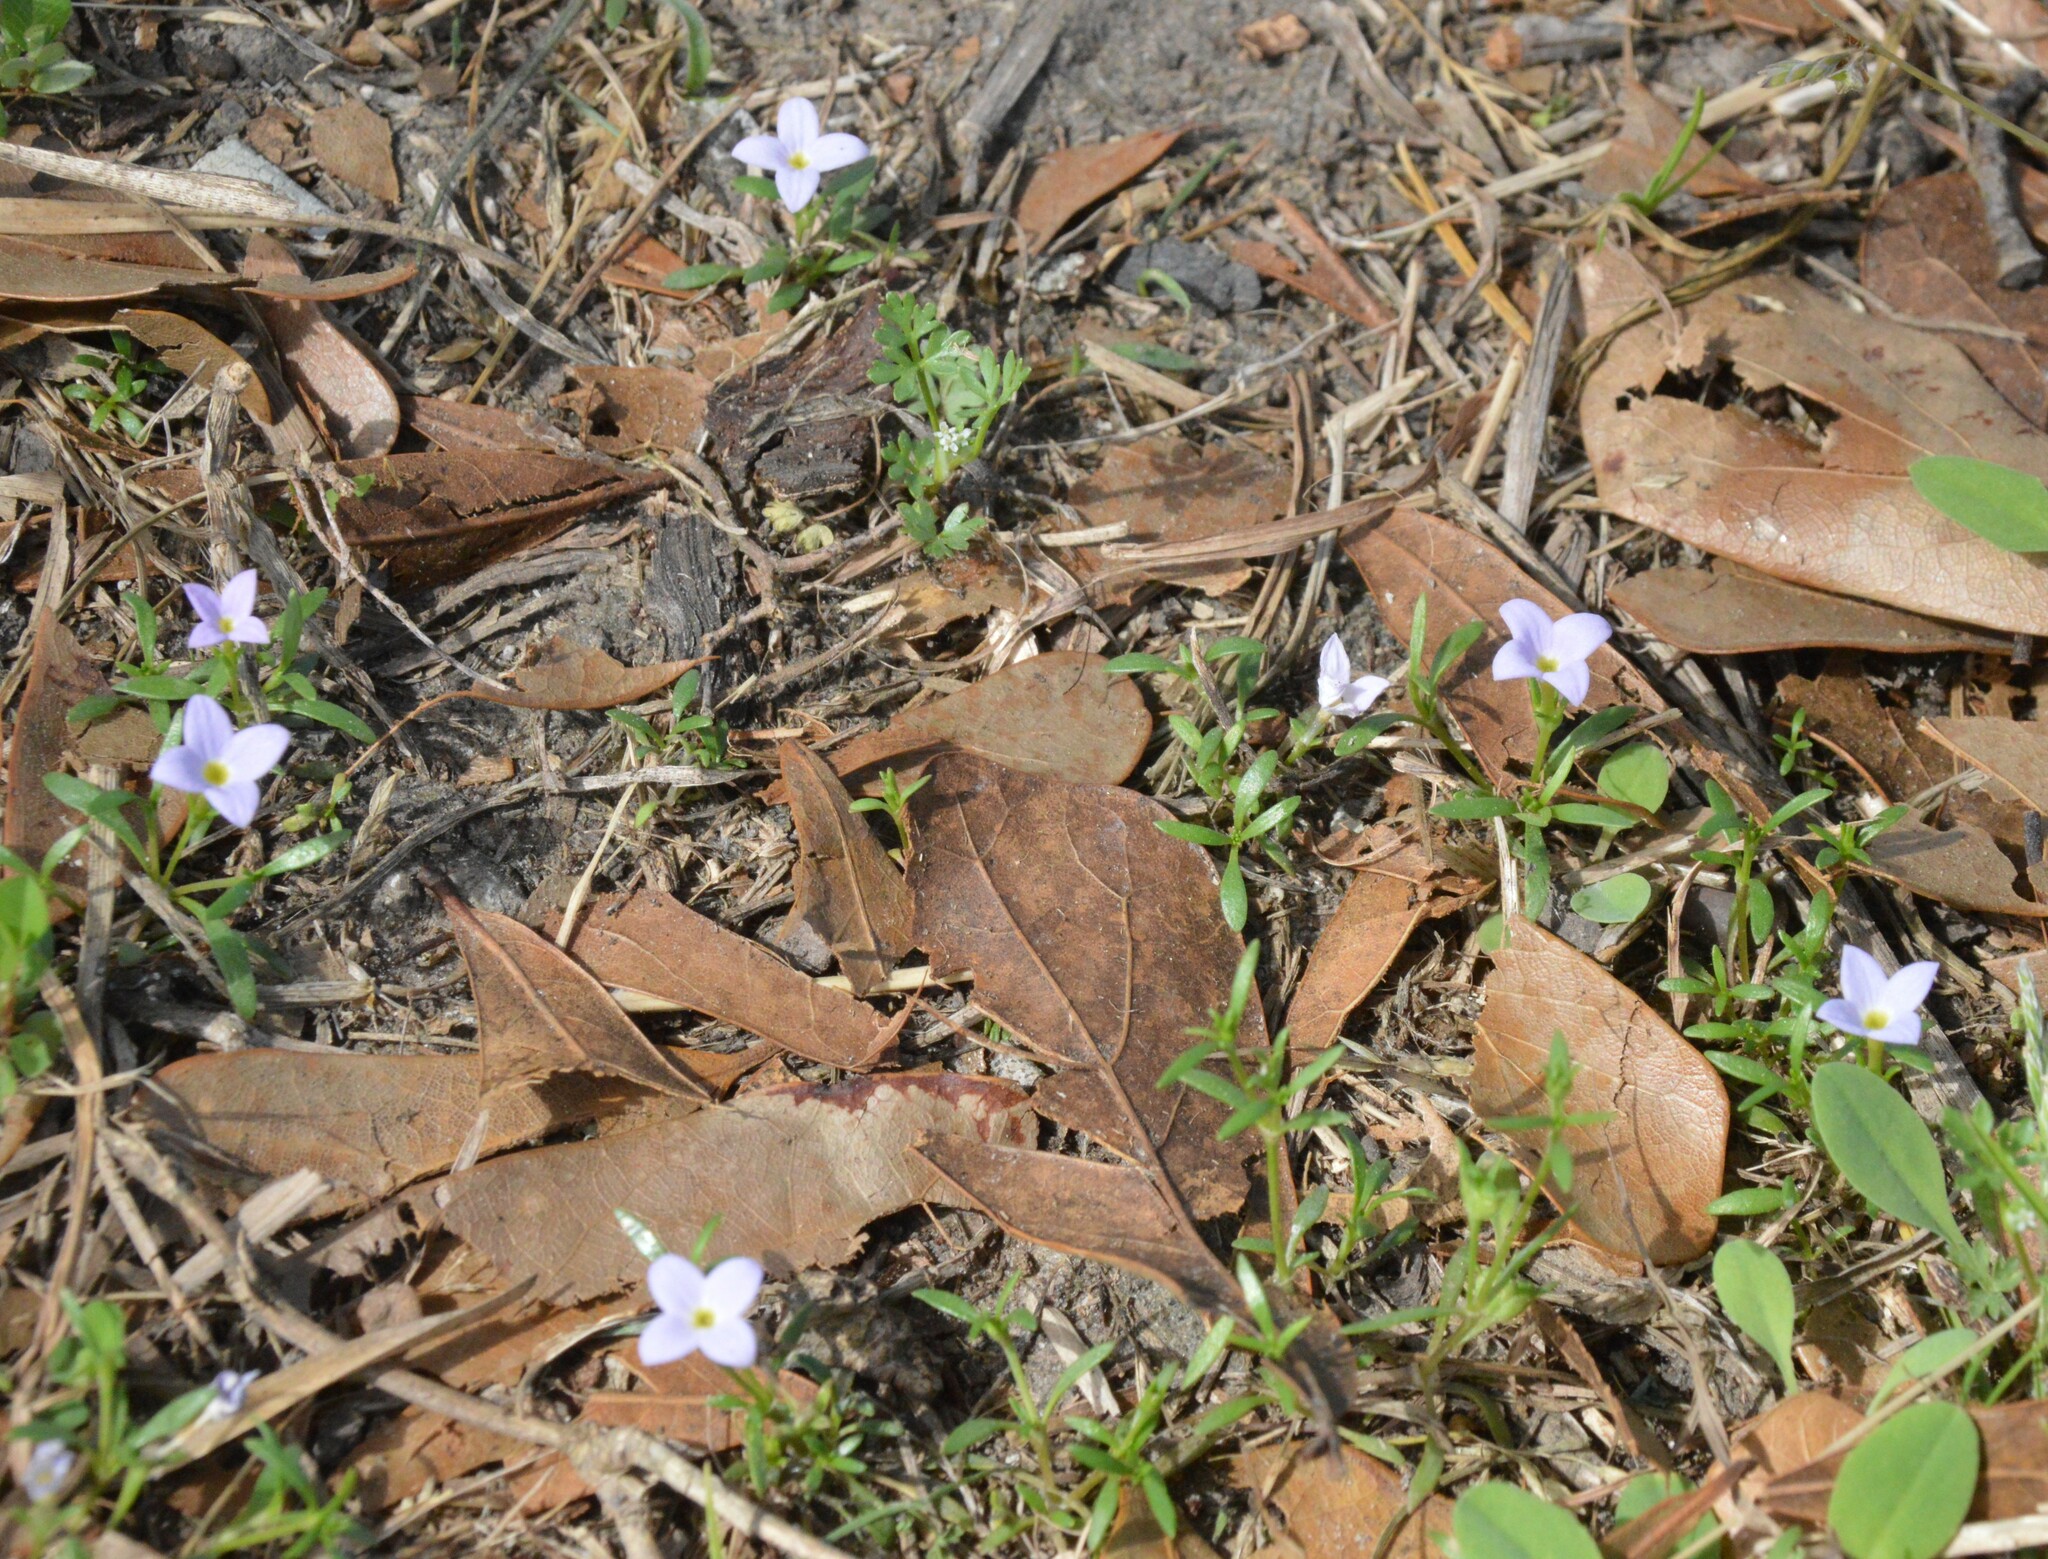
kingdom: Plantae
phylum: Tracheophyta
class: Magnoliopsida
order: Gentianales
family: Rubiaceae
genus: Houstonia
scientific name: Houstonia rosea
